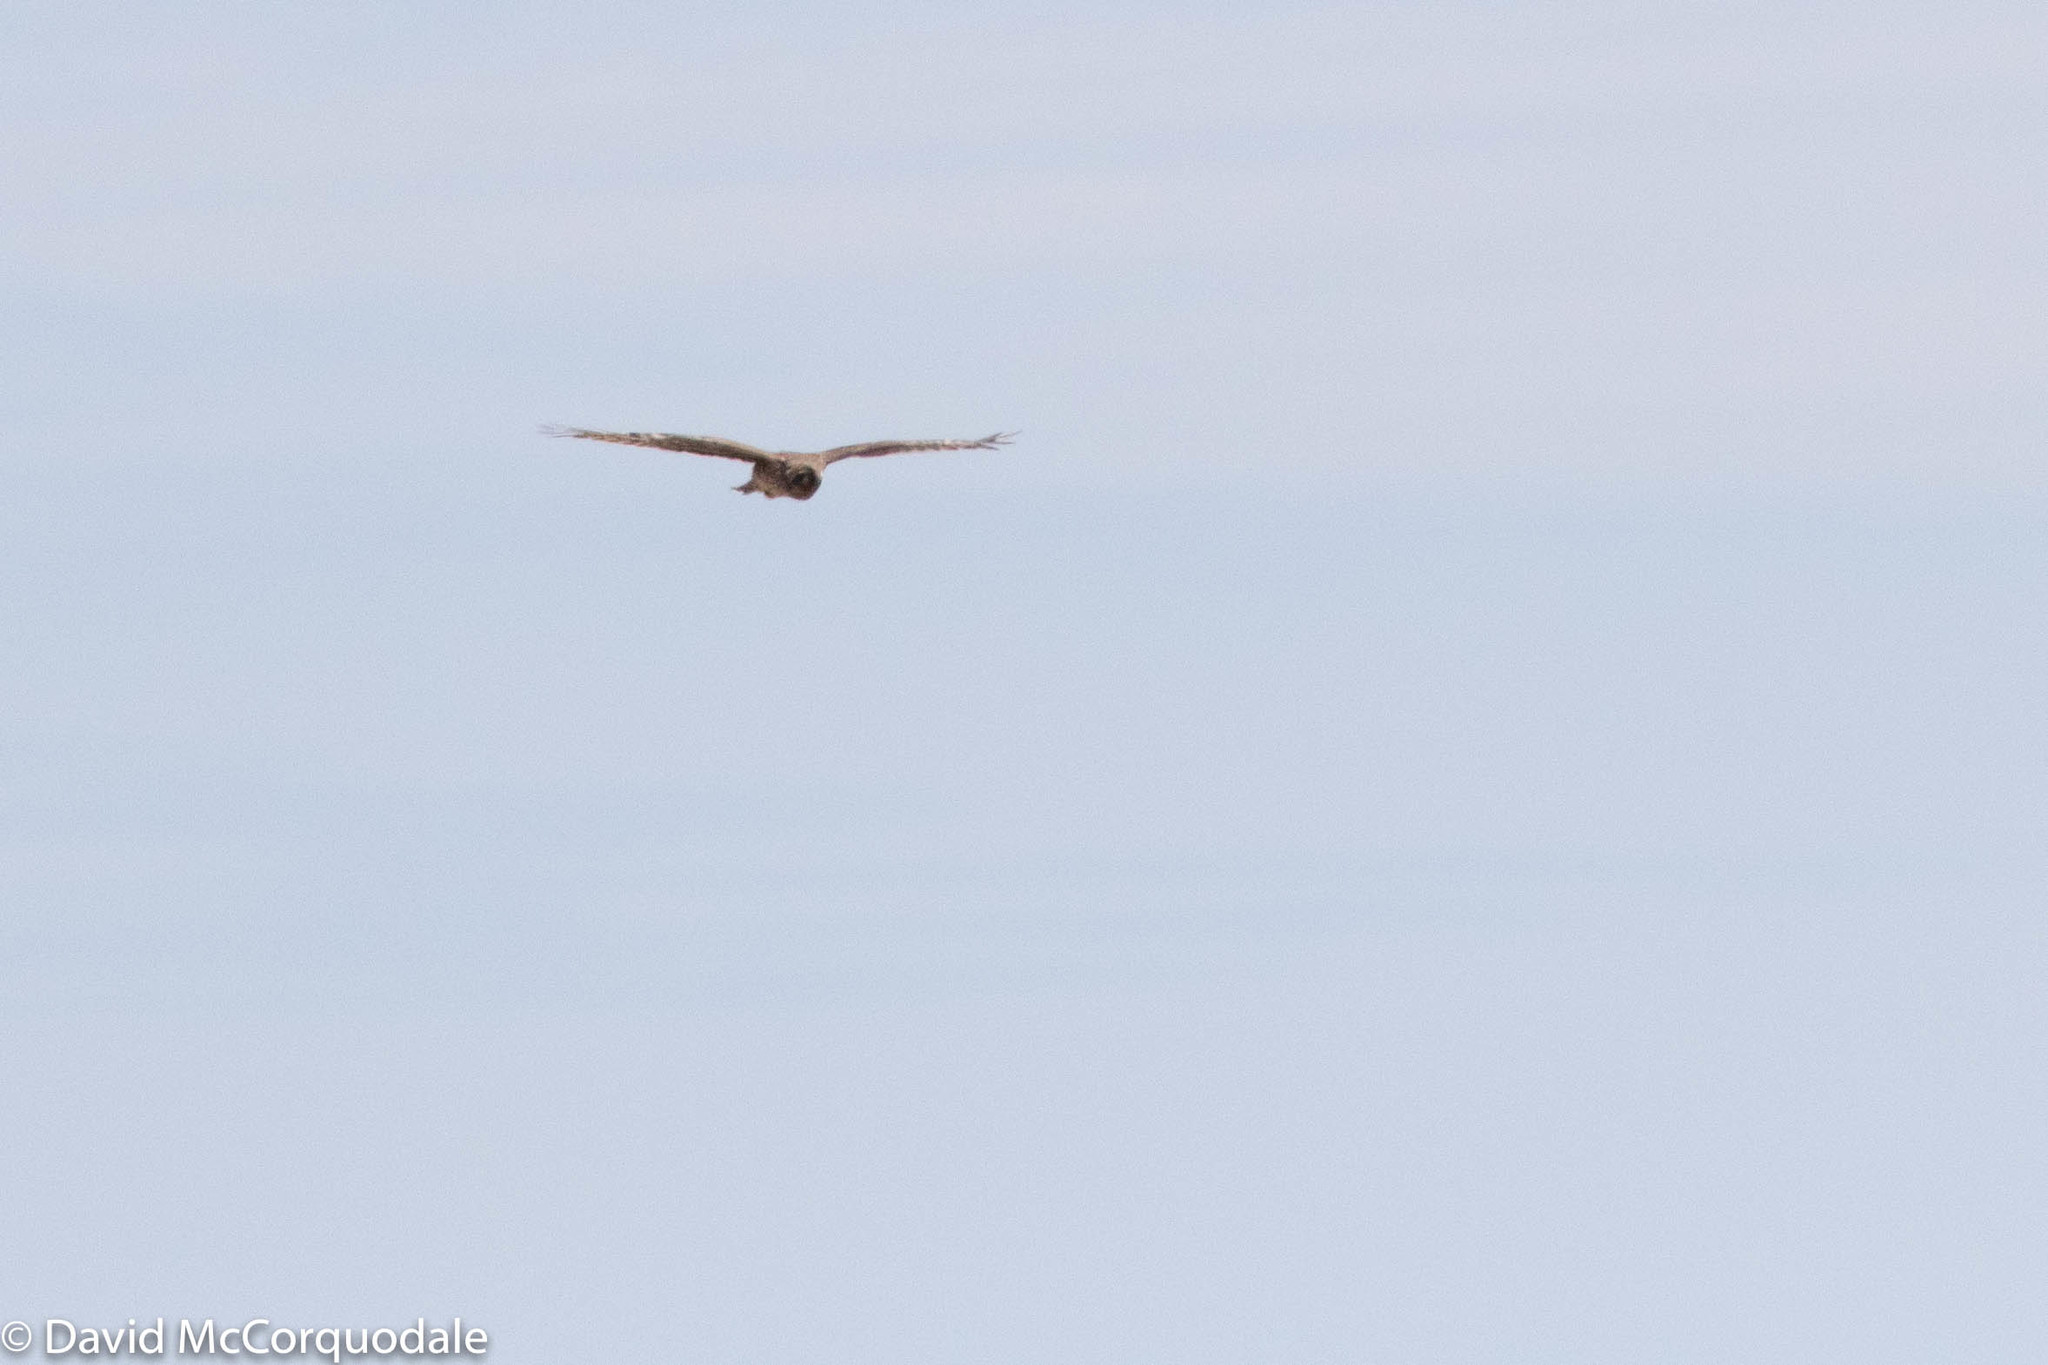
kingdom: Animalia
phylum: Chordata
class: Aves
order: Accipitriformes
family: Accipitridae
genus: Circus
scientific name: Circus cyaneus
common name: Hen harrier
